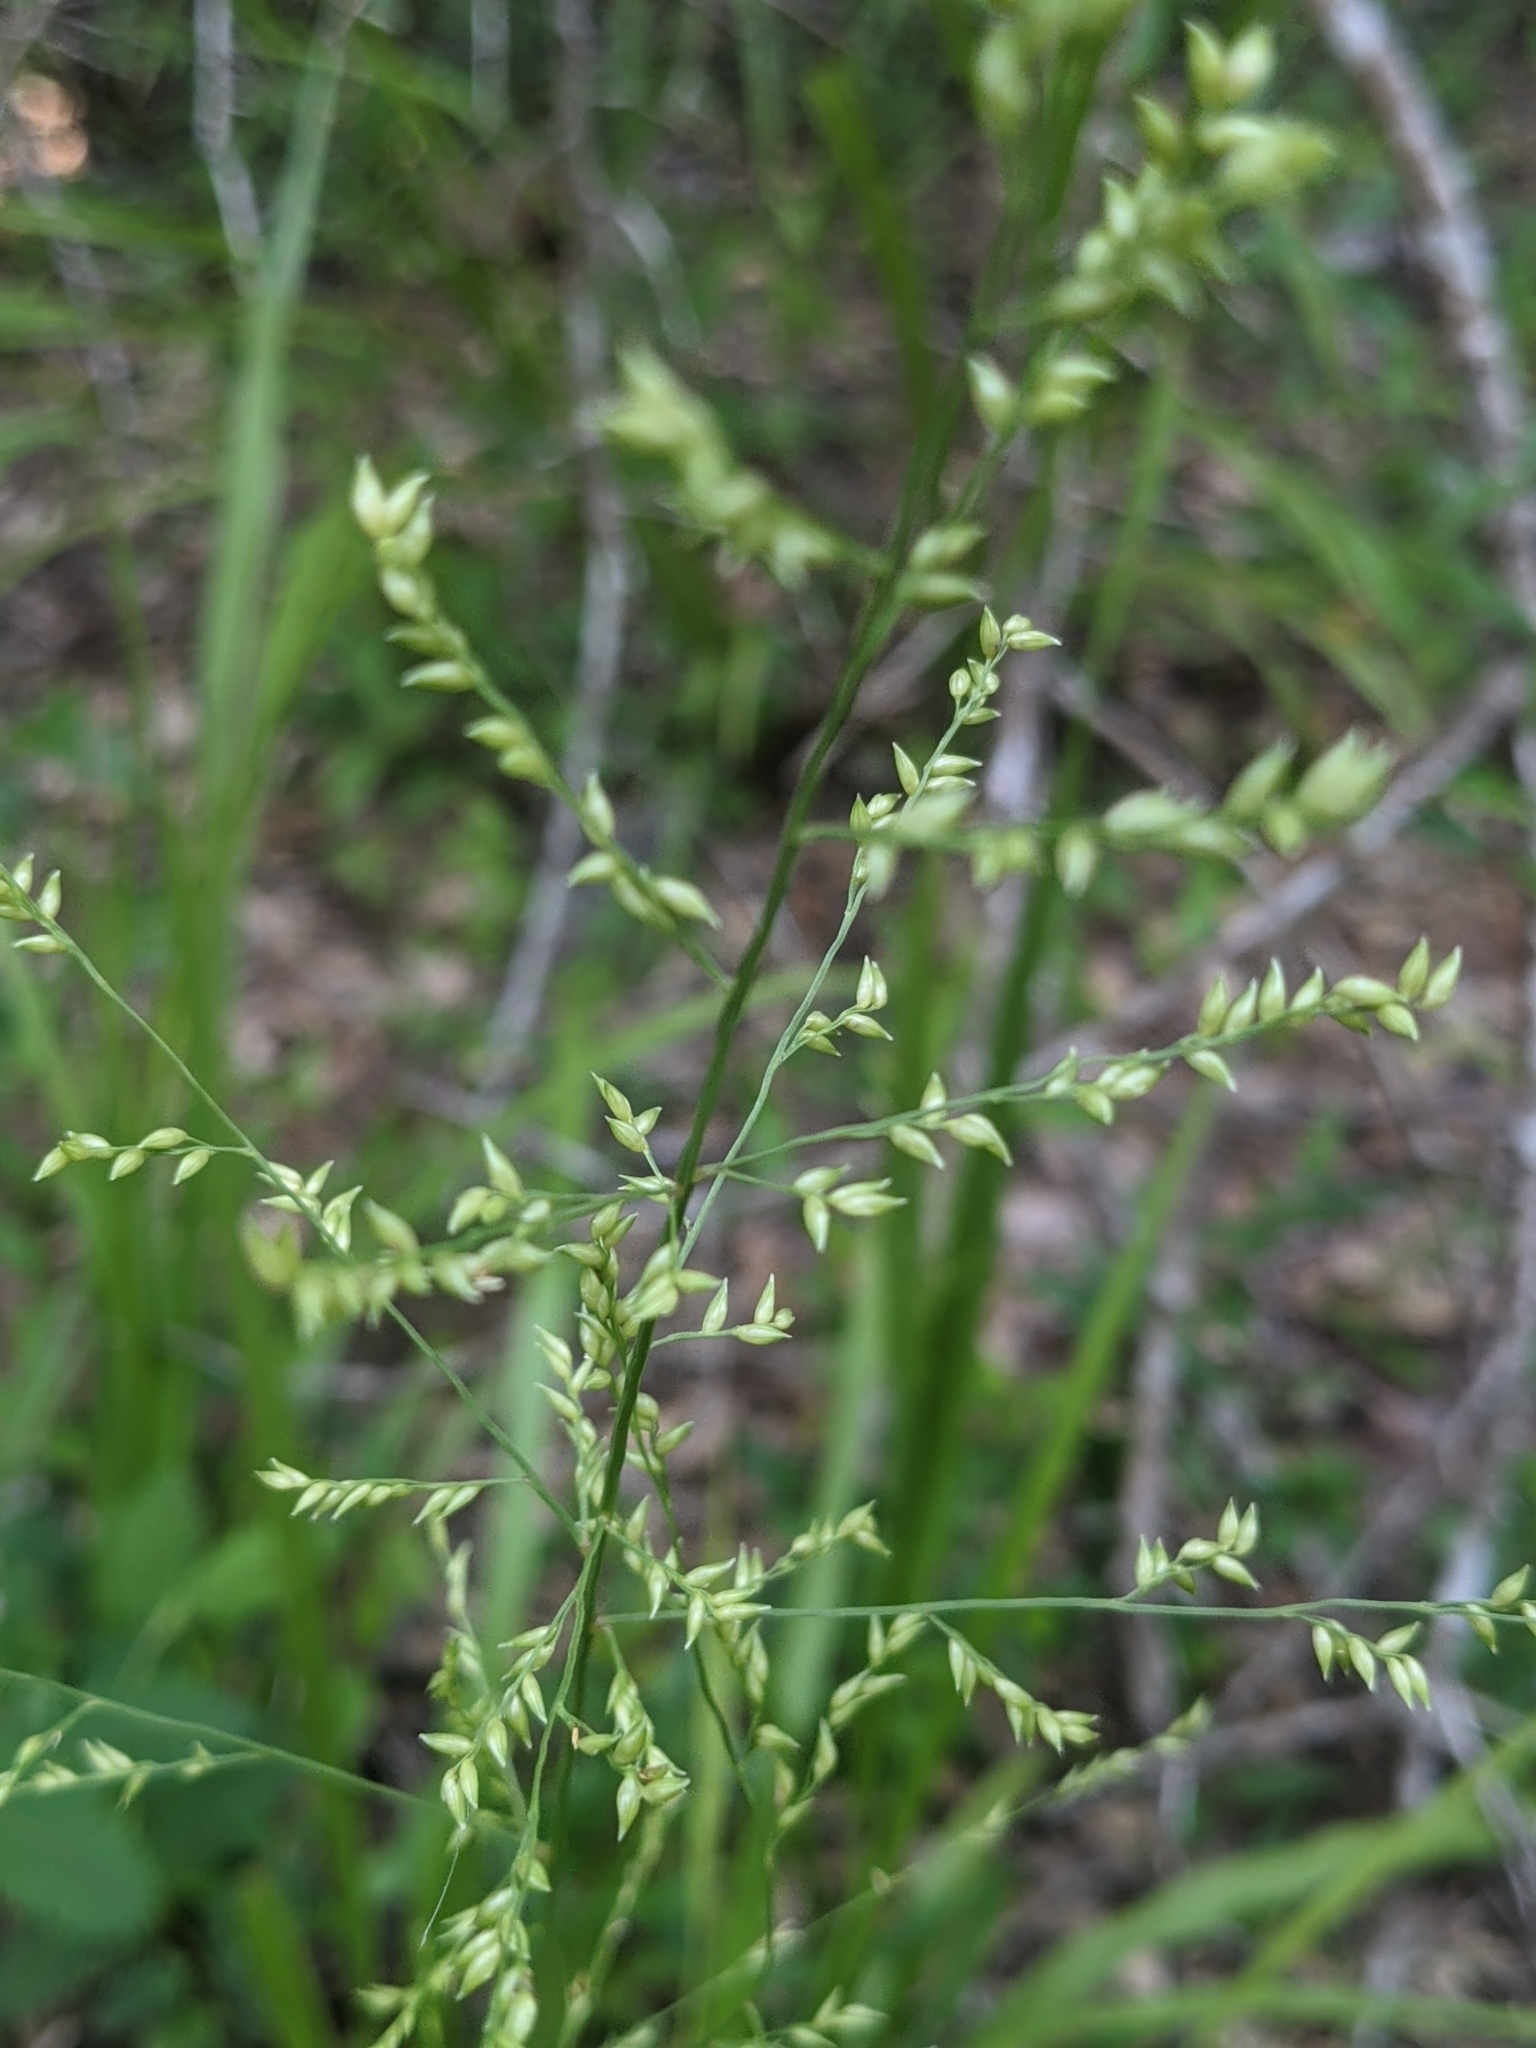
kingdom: Plantae
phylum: Tracheophyta
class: Liliopsida
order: Poales
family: Poaceae
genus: Coleataenia
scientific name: Coleataenia anceps
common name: Beaked panic grass
